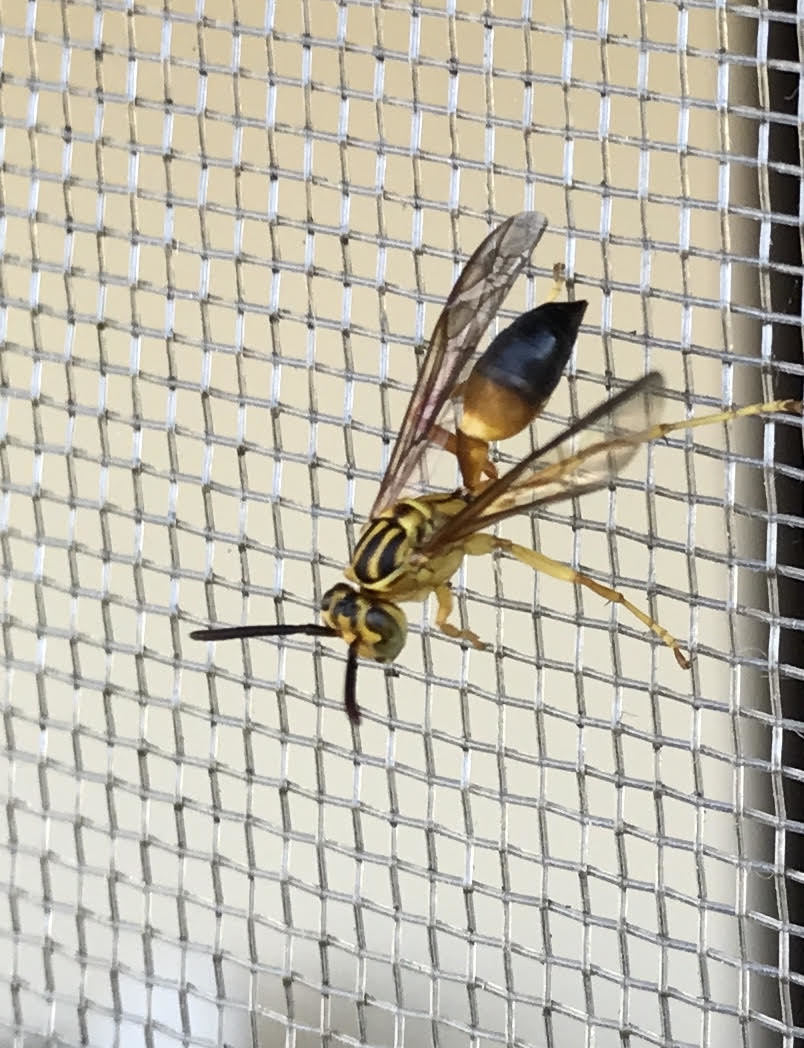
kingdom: Animalia
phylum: Arthropoda
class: Insecta
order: Hymenoptera
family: Vespidae
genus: Agelaia
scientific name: Agelaia pallipes
